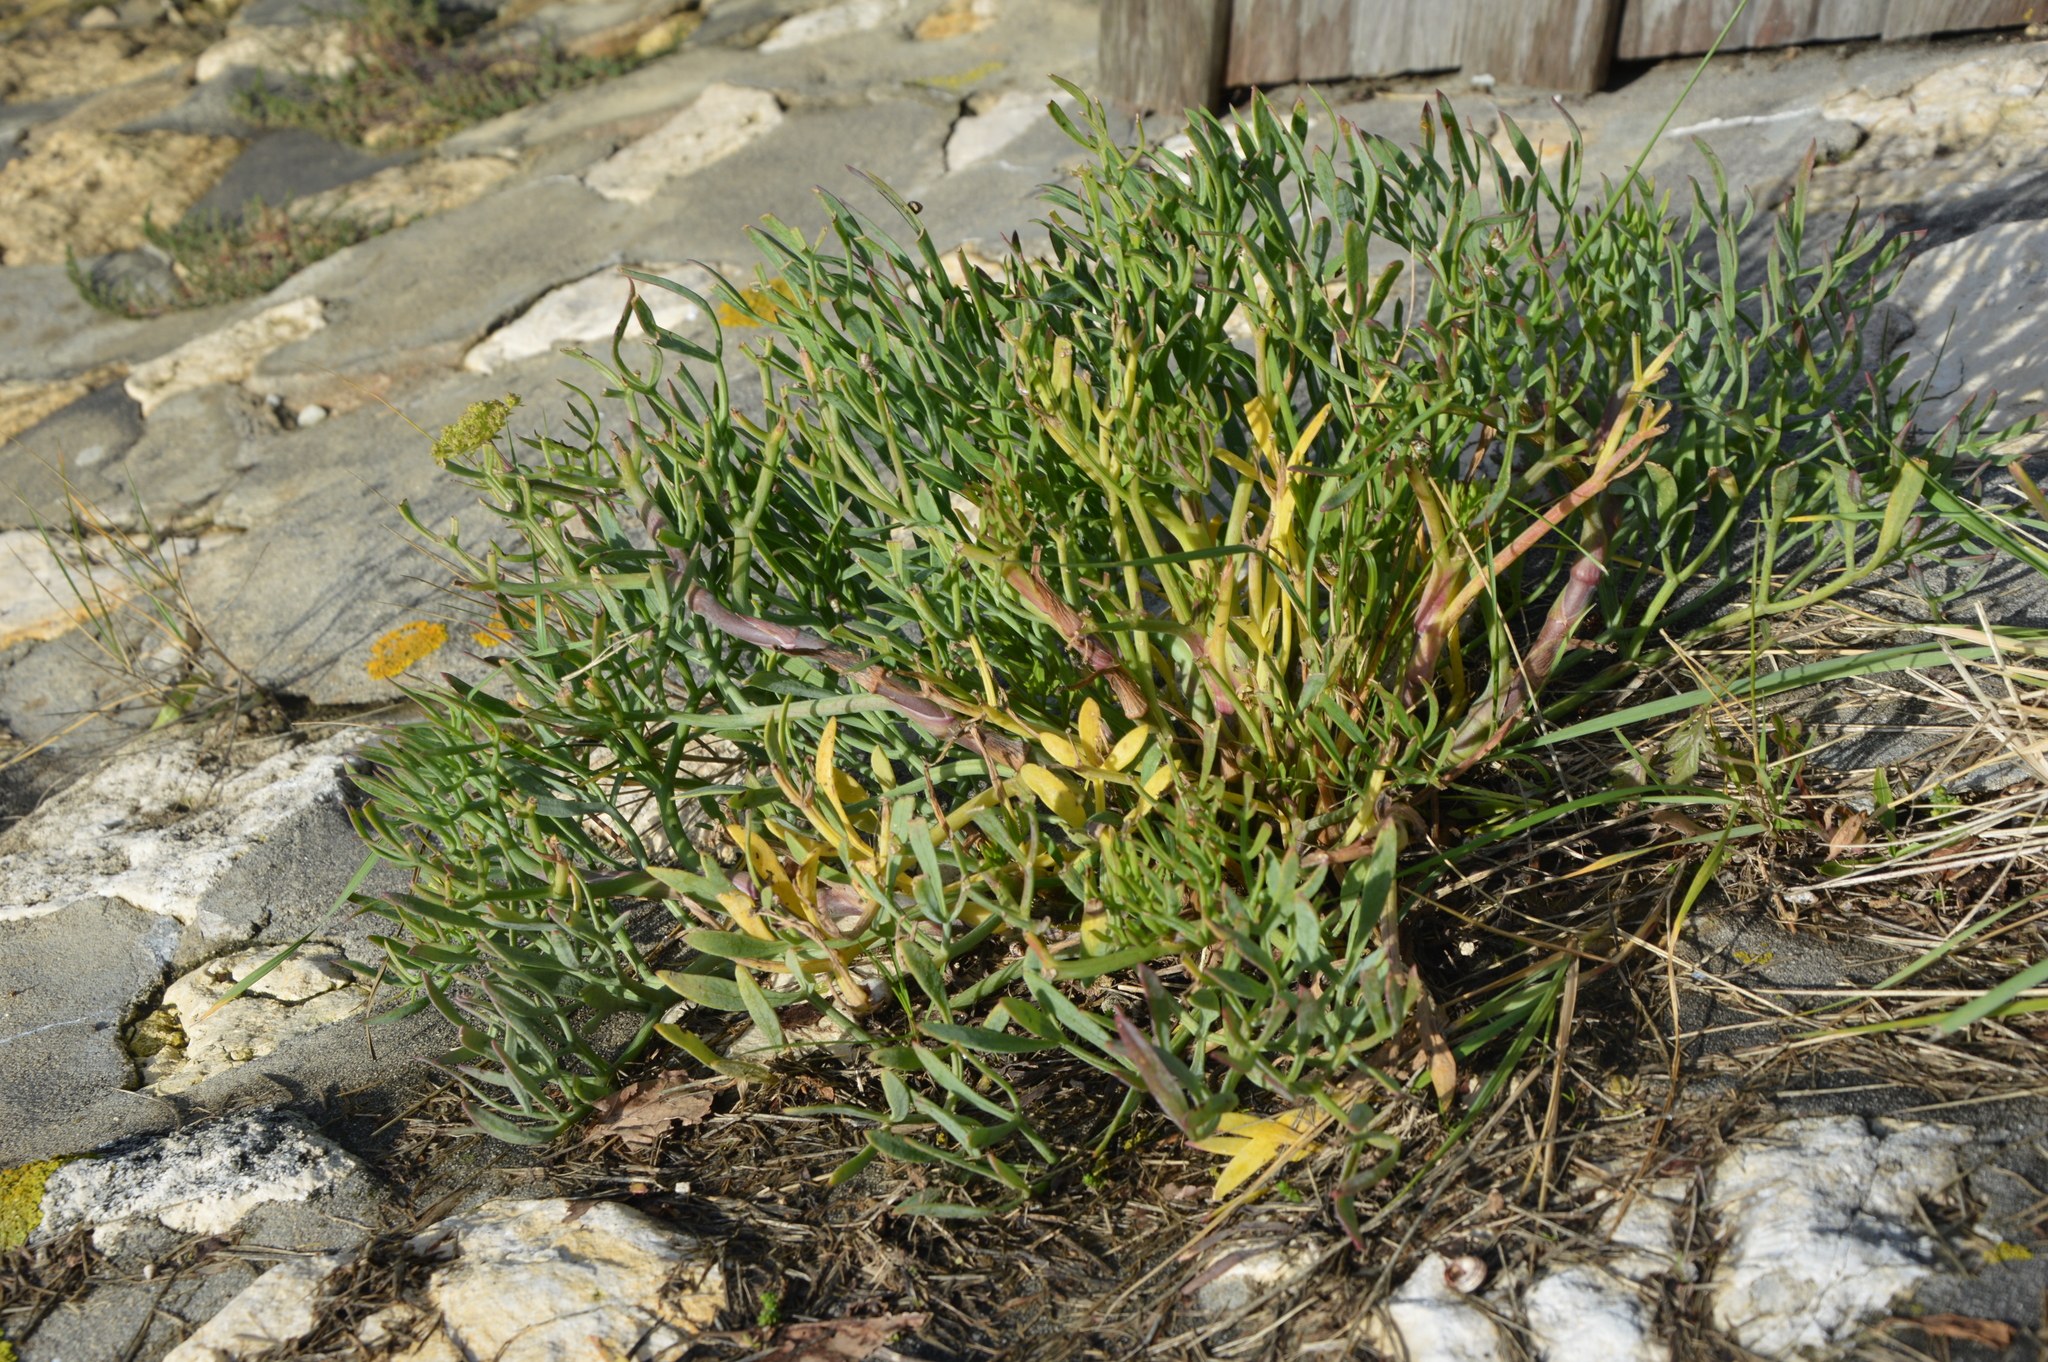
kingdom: Plantae
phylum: Tracheophyta
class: Magnoliopsida
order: Apiales
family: Apiaceae
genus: Crithmum
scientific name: Crithmum maritimum
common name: Rock samphire
